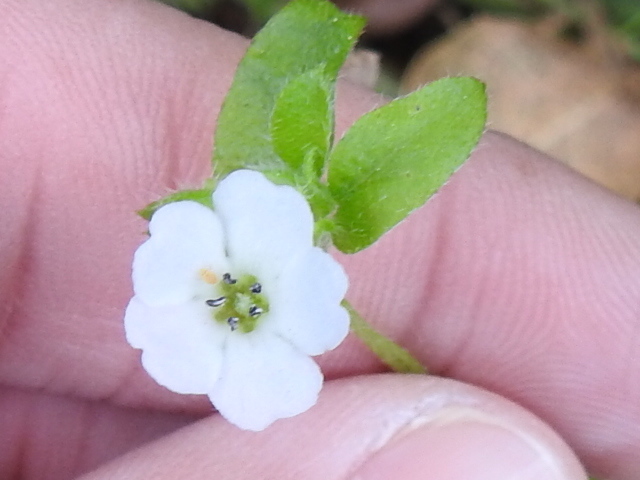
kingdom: Plantae
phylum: Tracheophyta
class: Magnoliopsida
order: Boraginales
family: Hydrophyllaceae
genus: Nemophila
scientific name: Nemophila heterophylla
